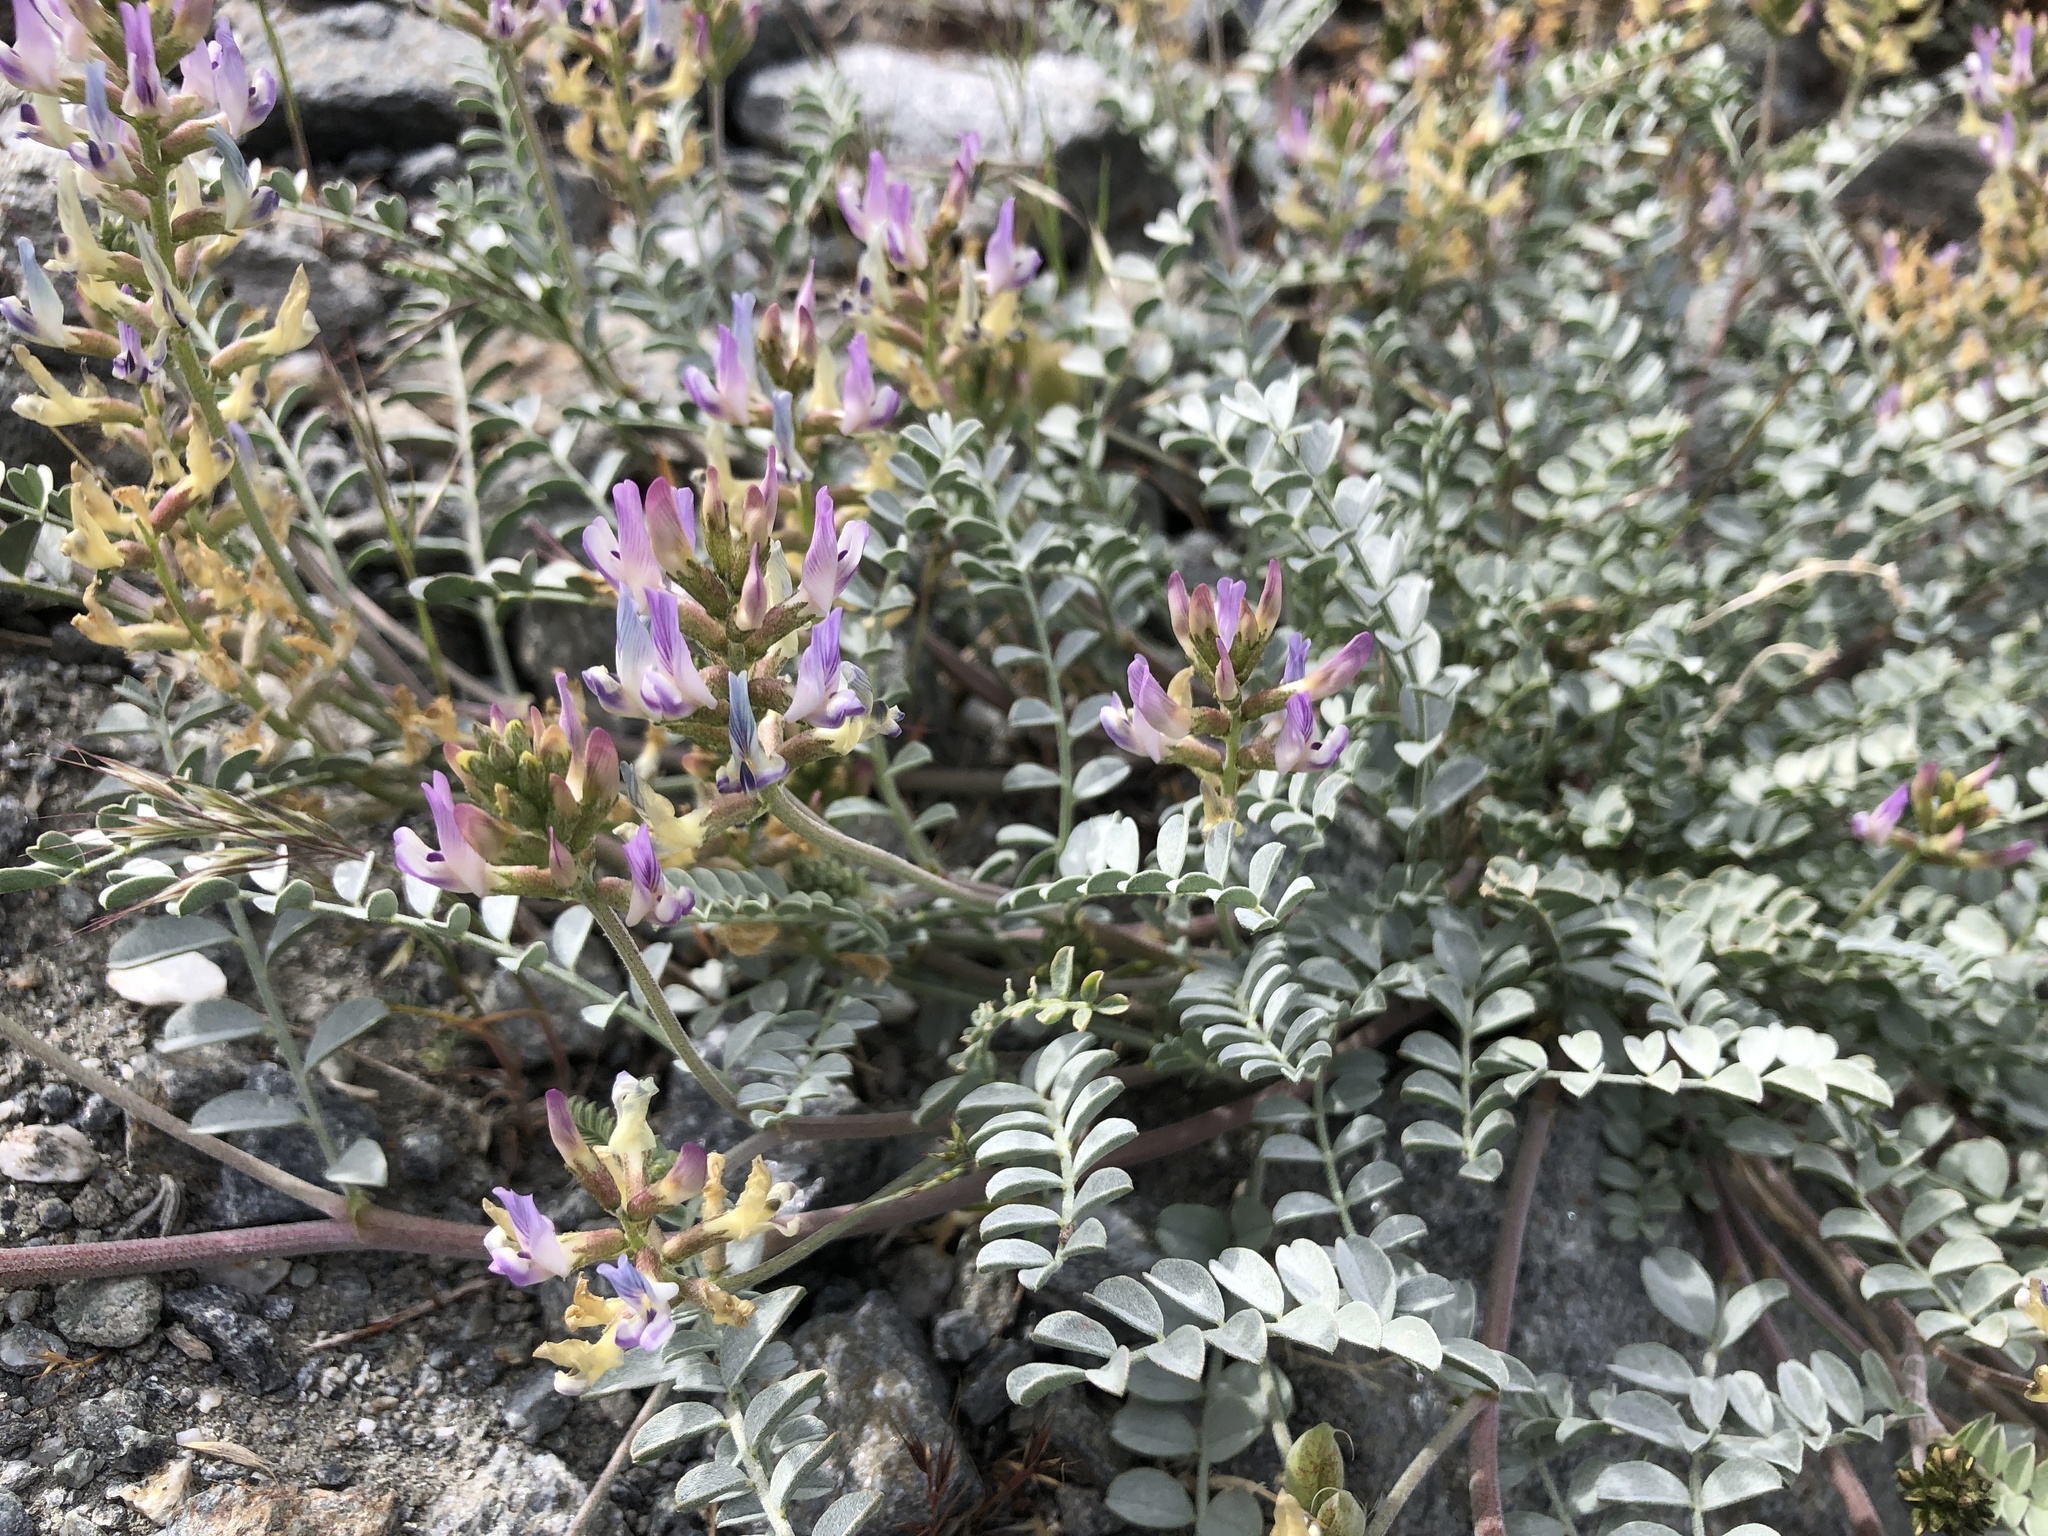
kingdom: Plantae
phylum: Tracheophyta
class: Magnoliopsida
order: Fabales
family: Fabaceae
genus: Astragalus
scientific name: Astragalus lentiginosus
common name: Freckled milkvetch
